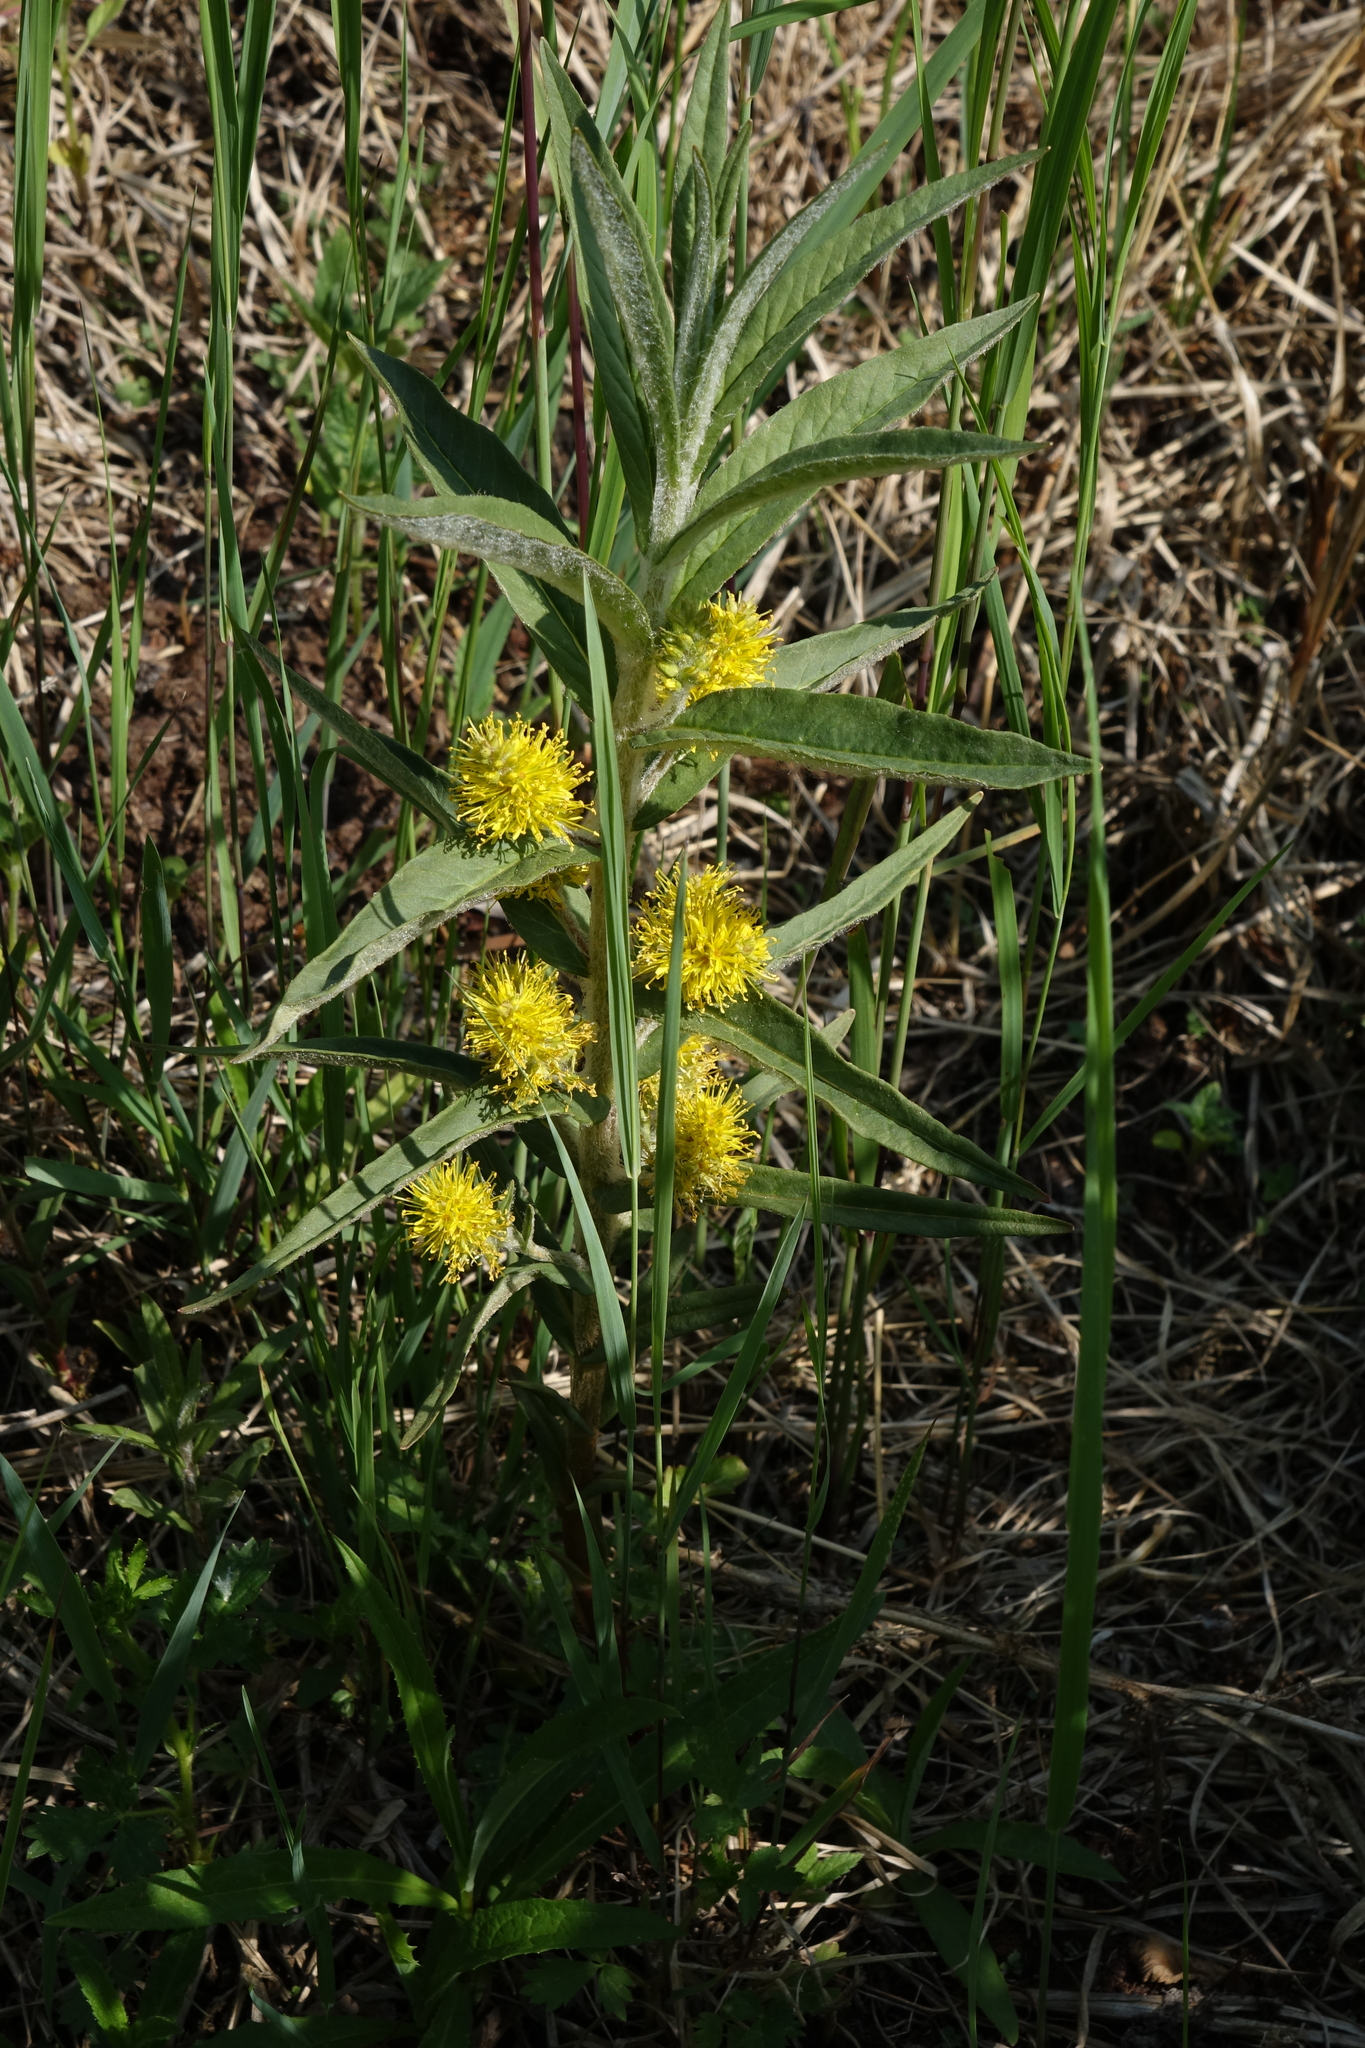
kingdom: Plantae
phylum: Tracheophyta
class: Magnoliopsida
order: Ericales
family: Primulaceae
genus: Lysimachia
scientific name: Lysimachia thyrsiflora
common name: Tufted loosestrife
